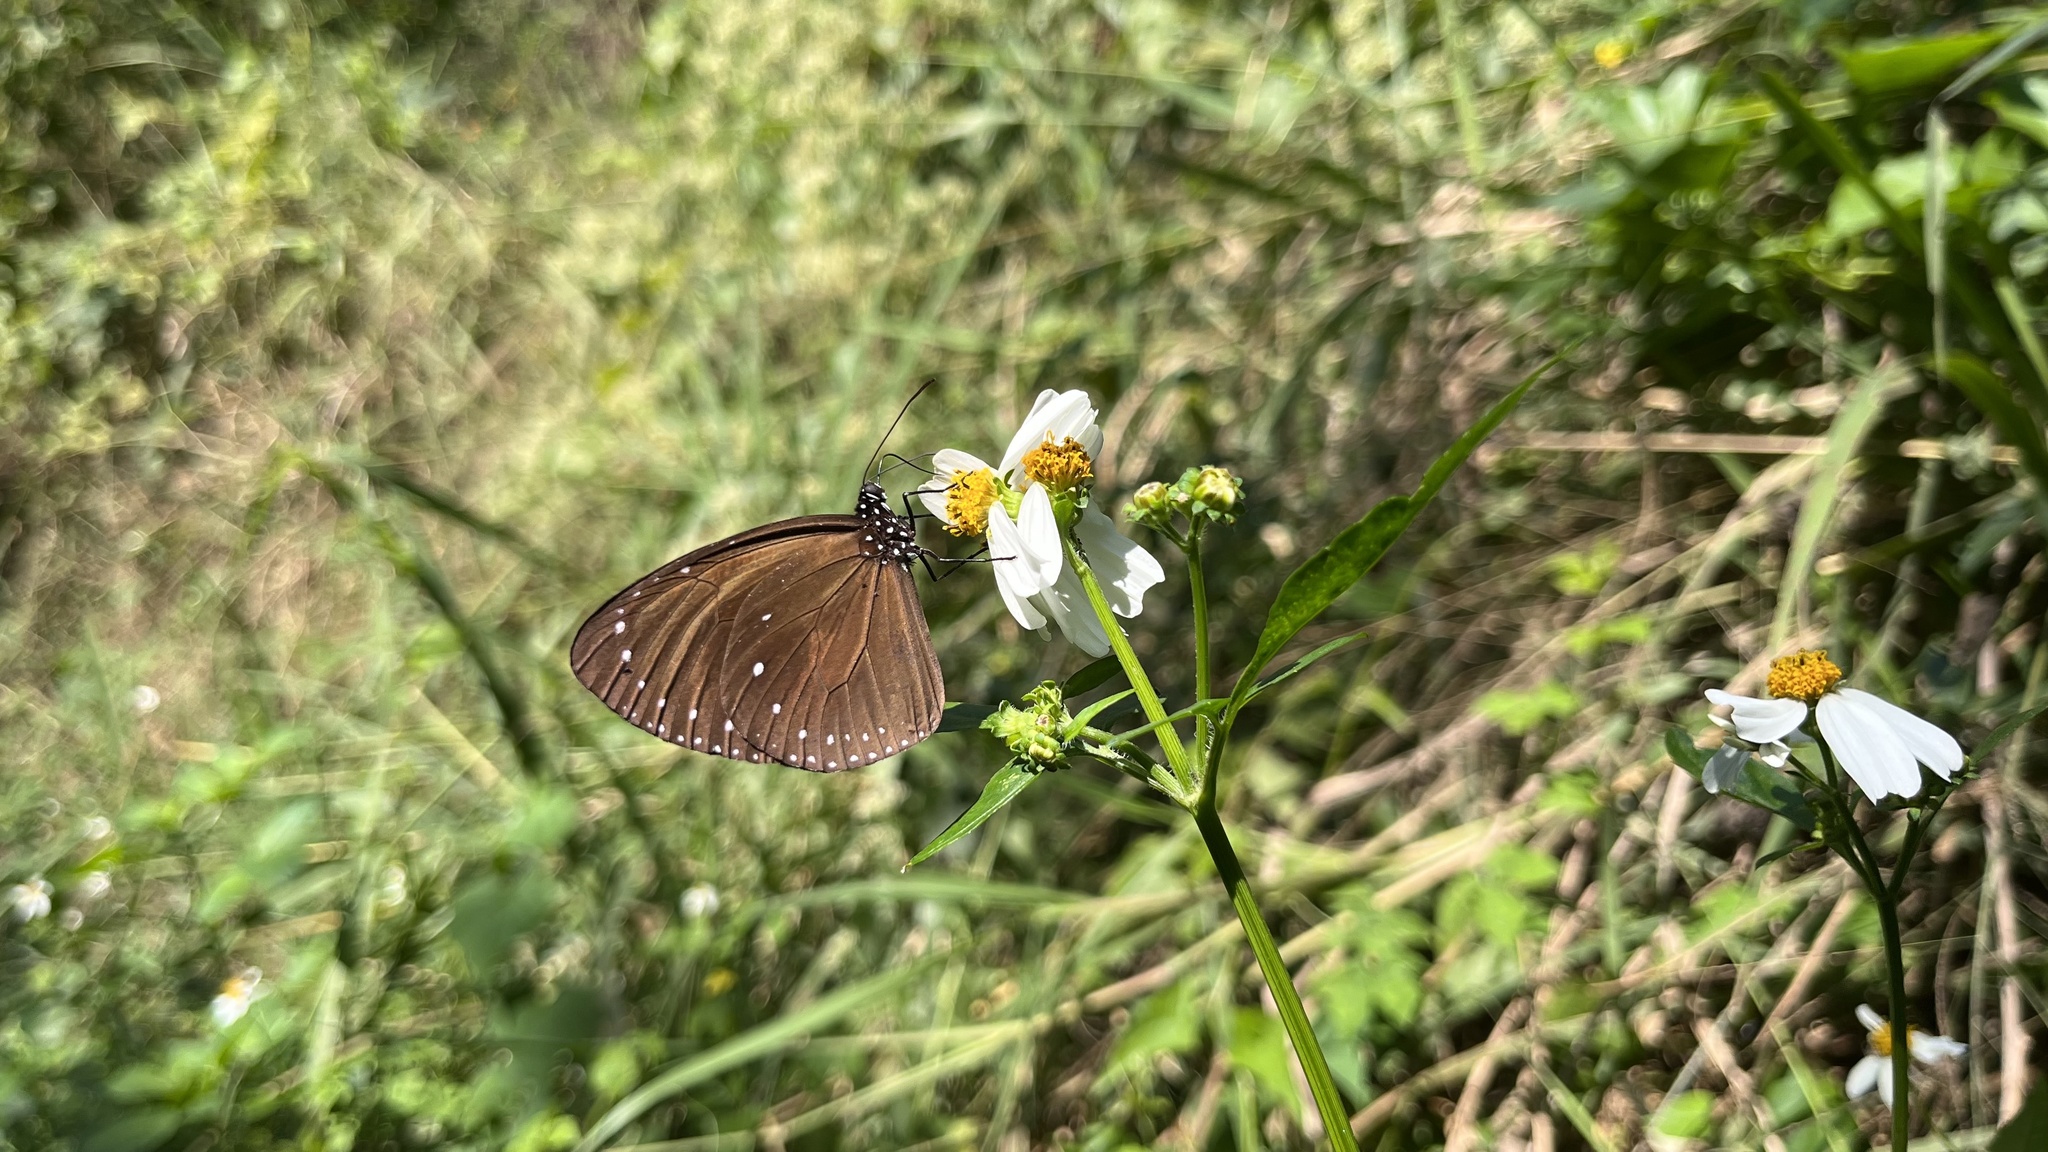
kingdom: Animalia
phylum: Arthropoda
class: Insecta
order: Lepidoptera
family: Nymphalidae
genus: Euploea
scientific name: Euploea tulliolus
